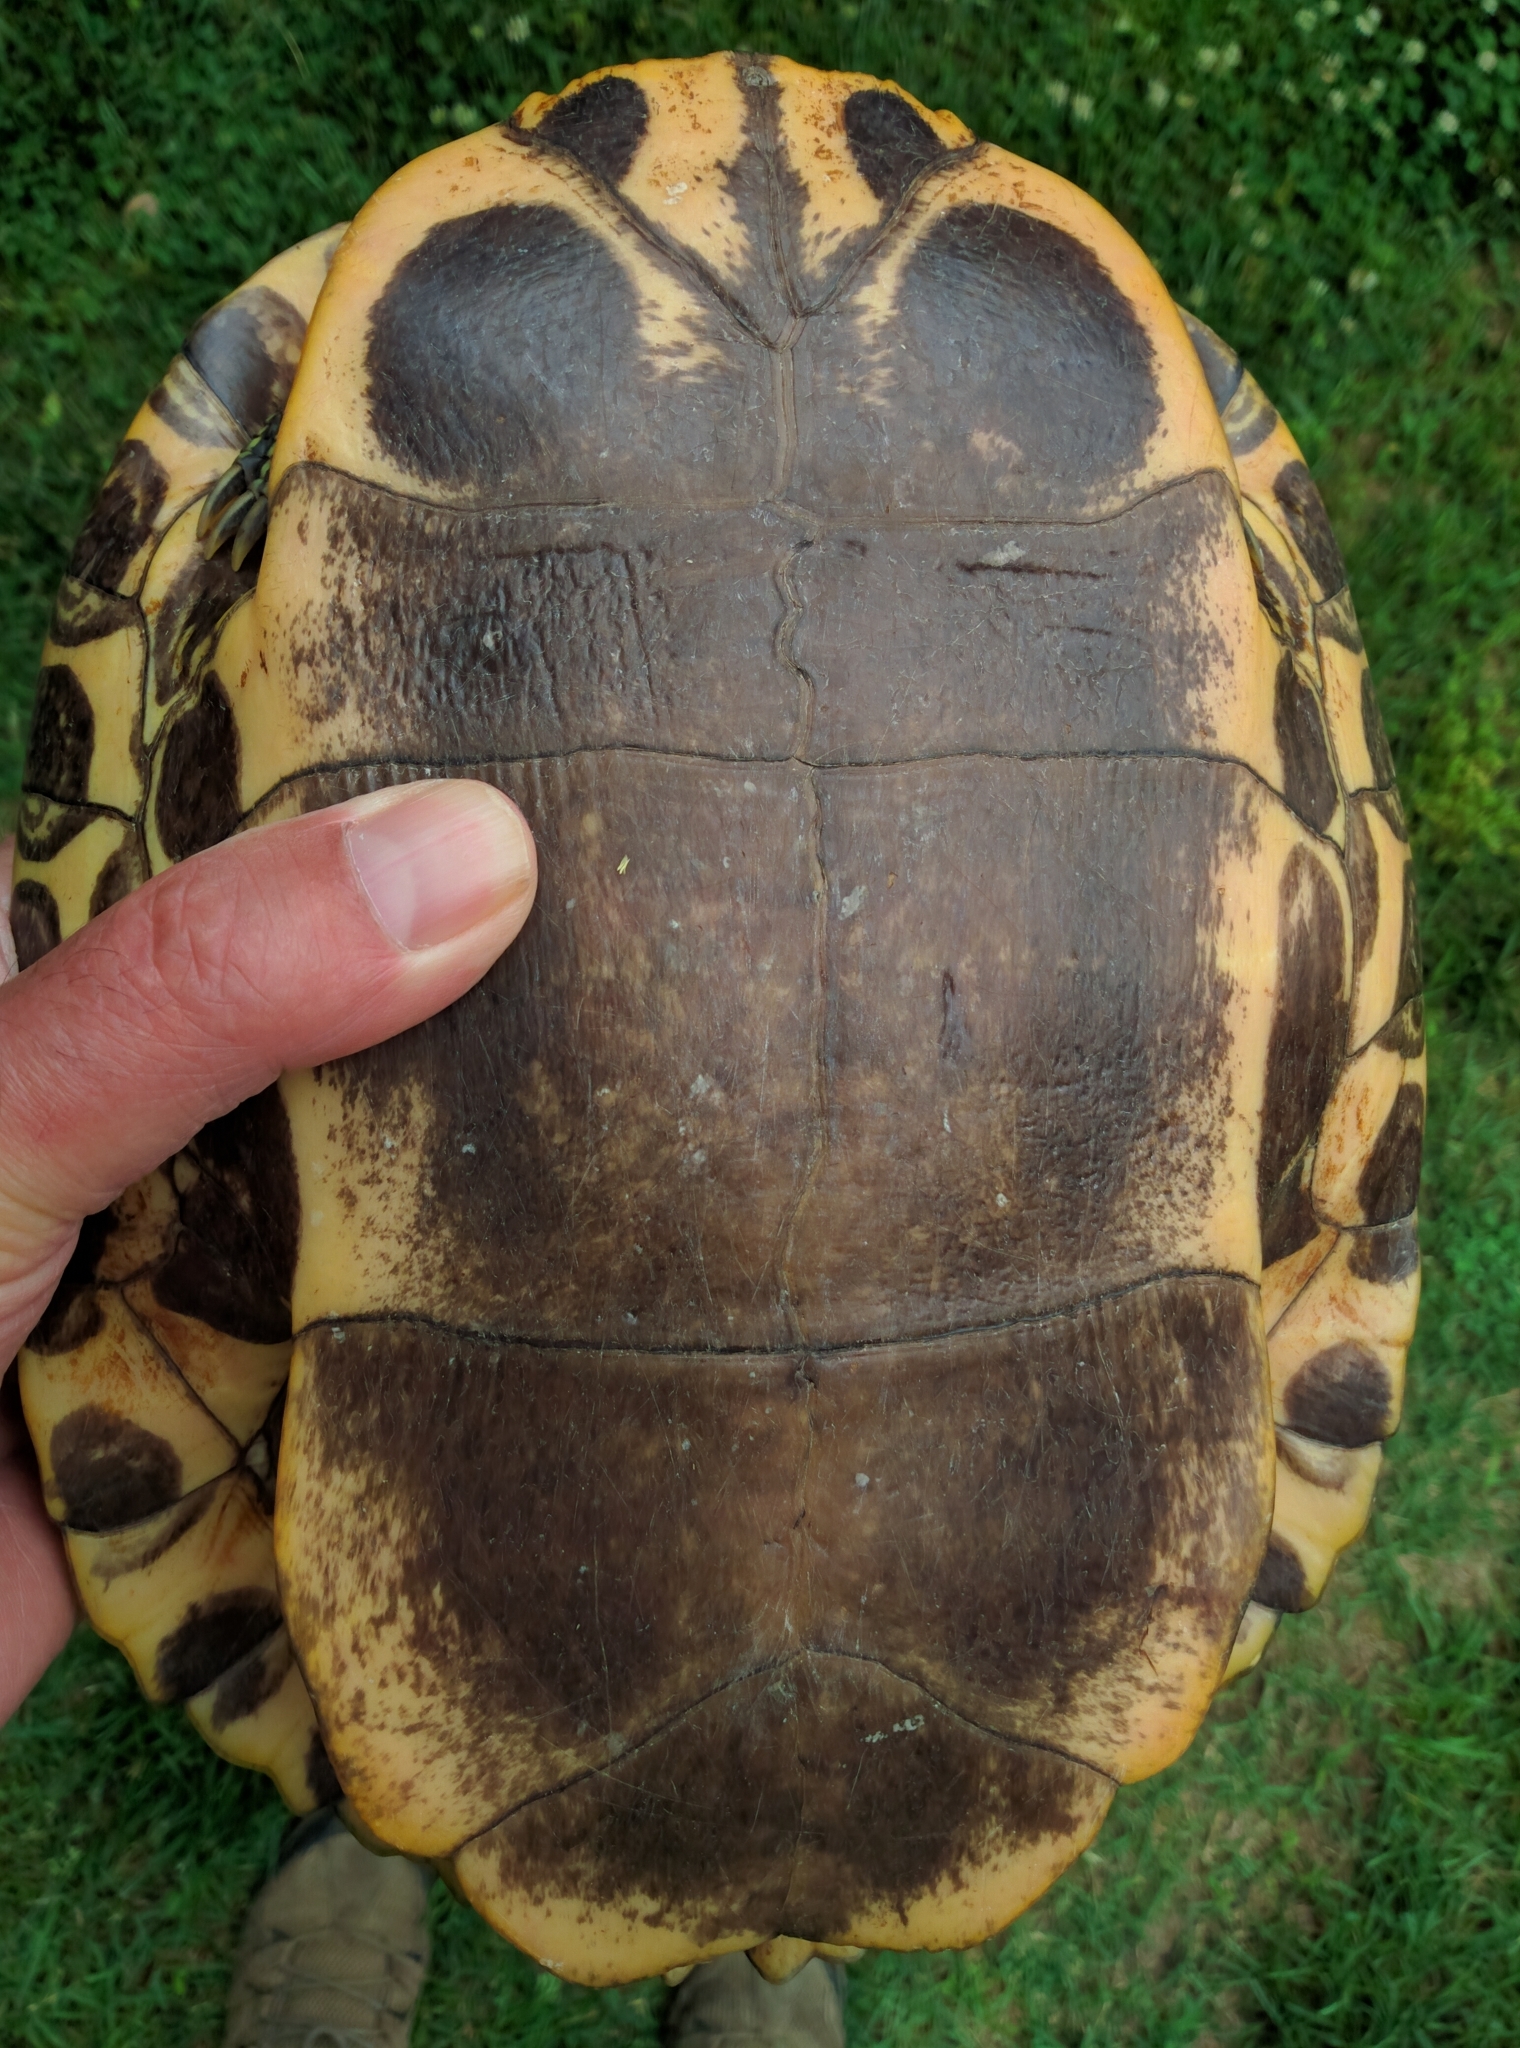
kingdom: Animalia
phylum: Chordata
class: Testudines
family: Emydidae
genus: Trachemys
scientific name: Trachemys scripta
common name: Slider
